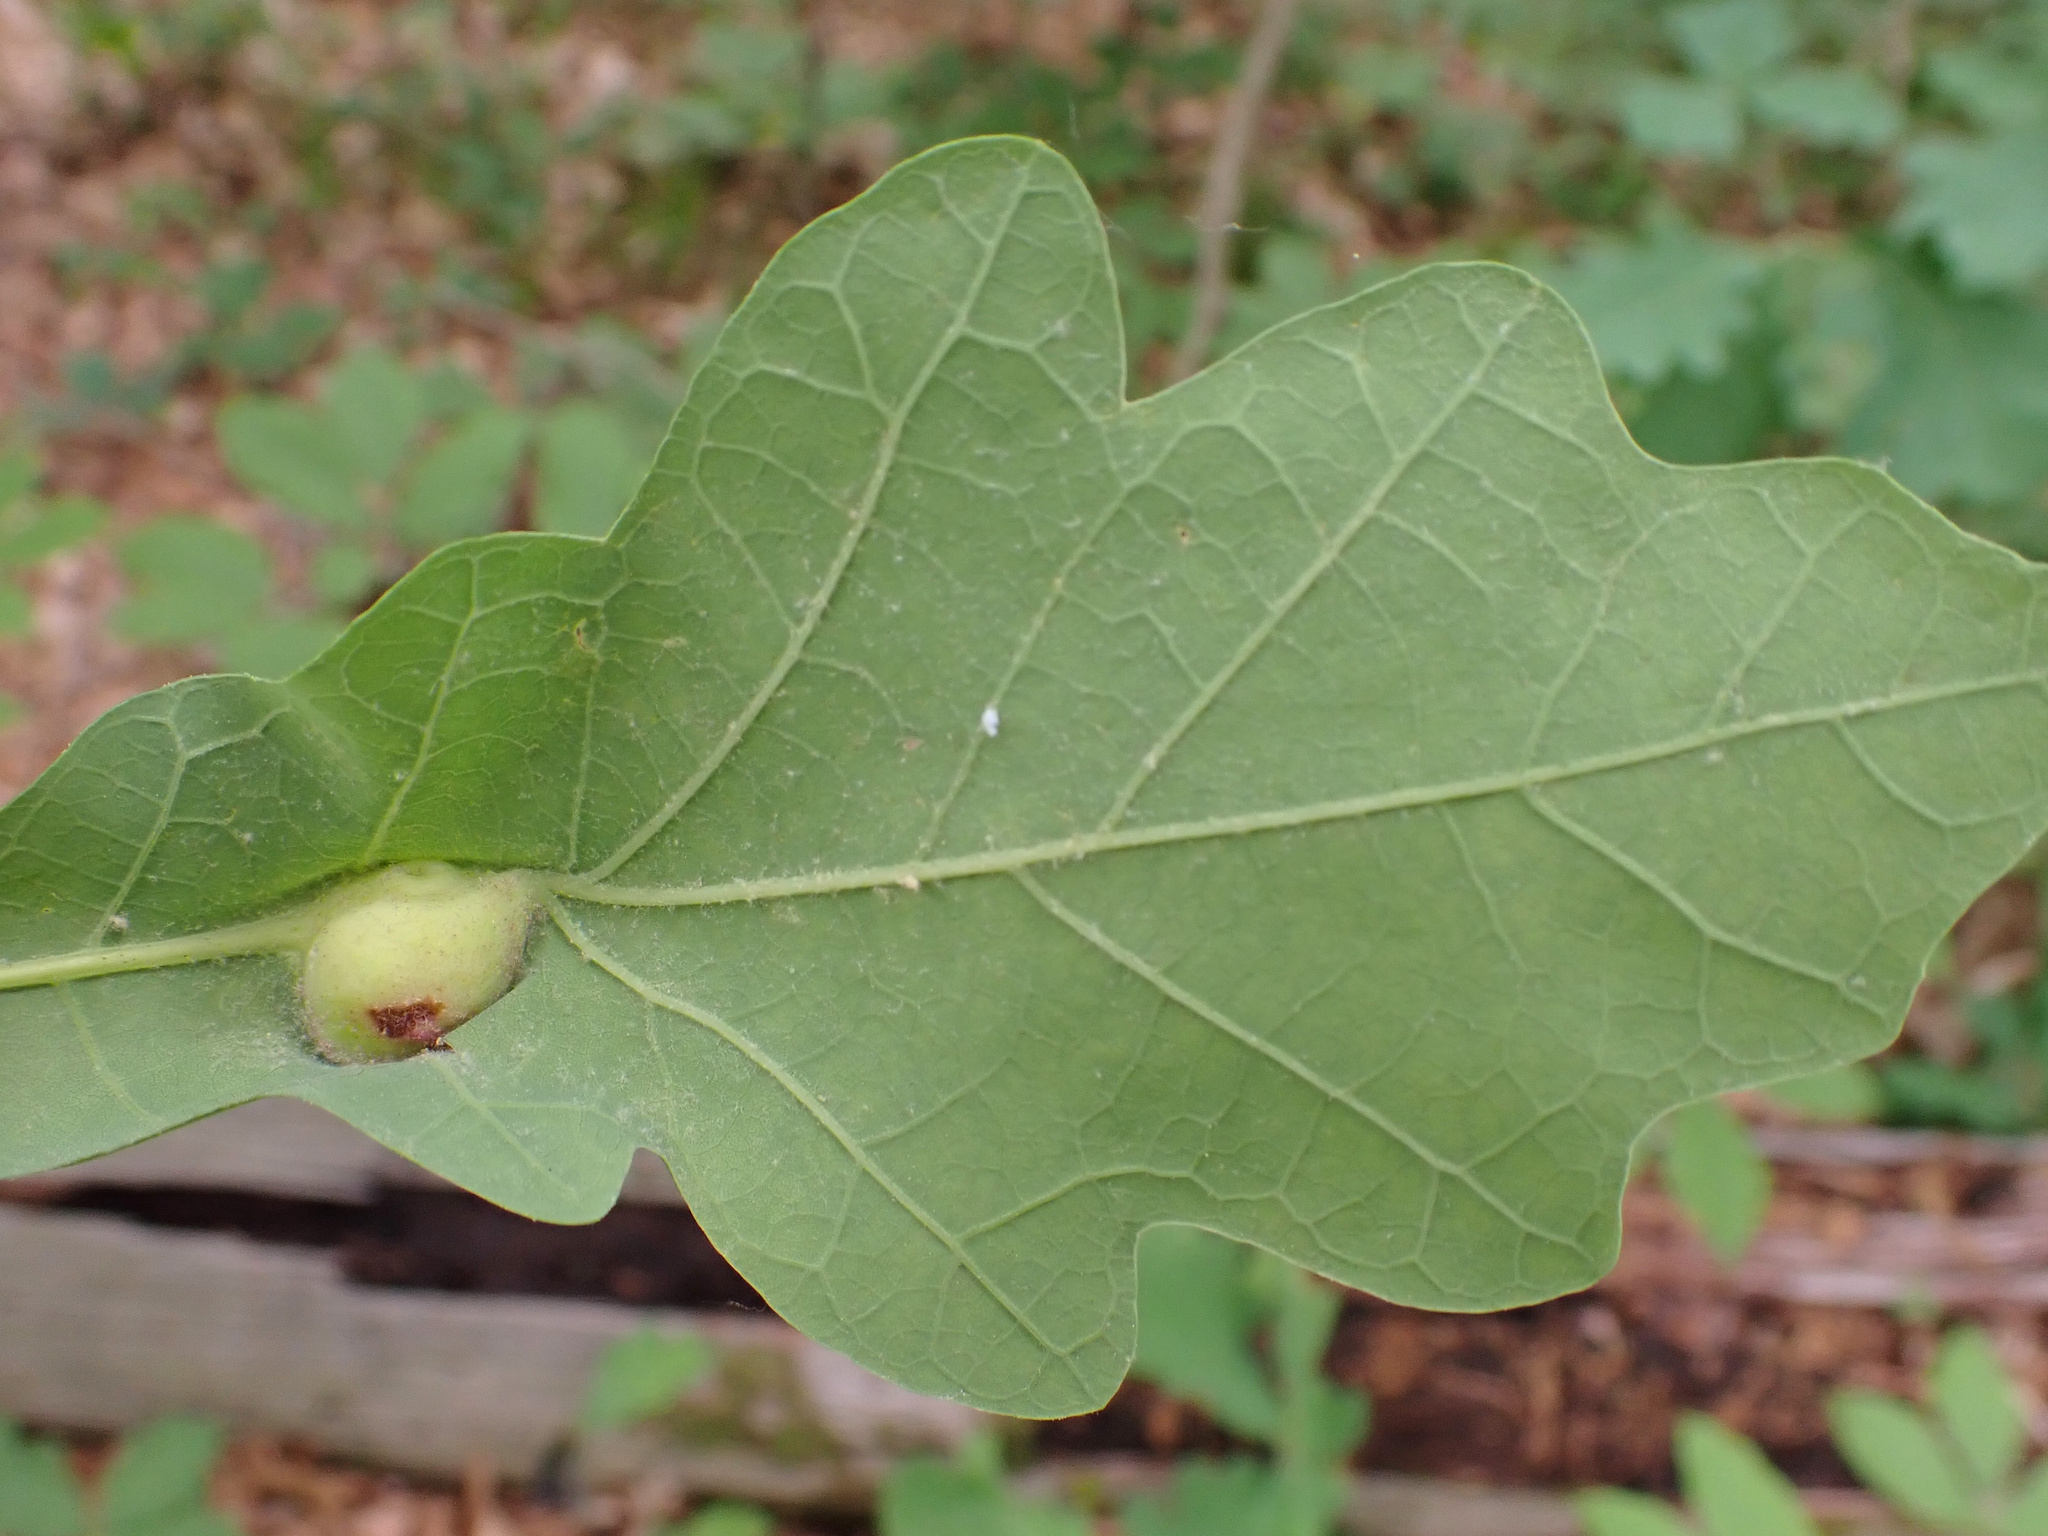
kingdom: Animalia
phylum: Arthropoda
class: Insecta
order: Hymenoptera
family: Cynipidae
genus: Andricus
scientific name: Andricus
